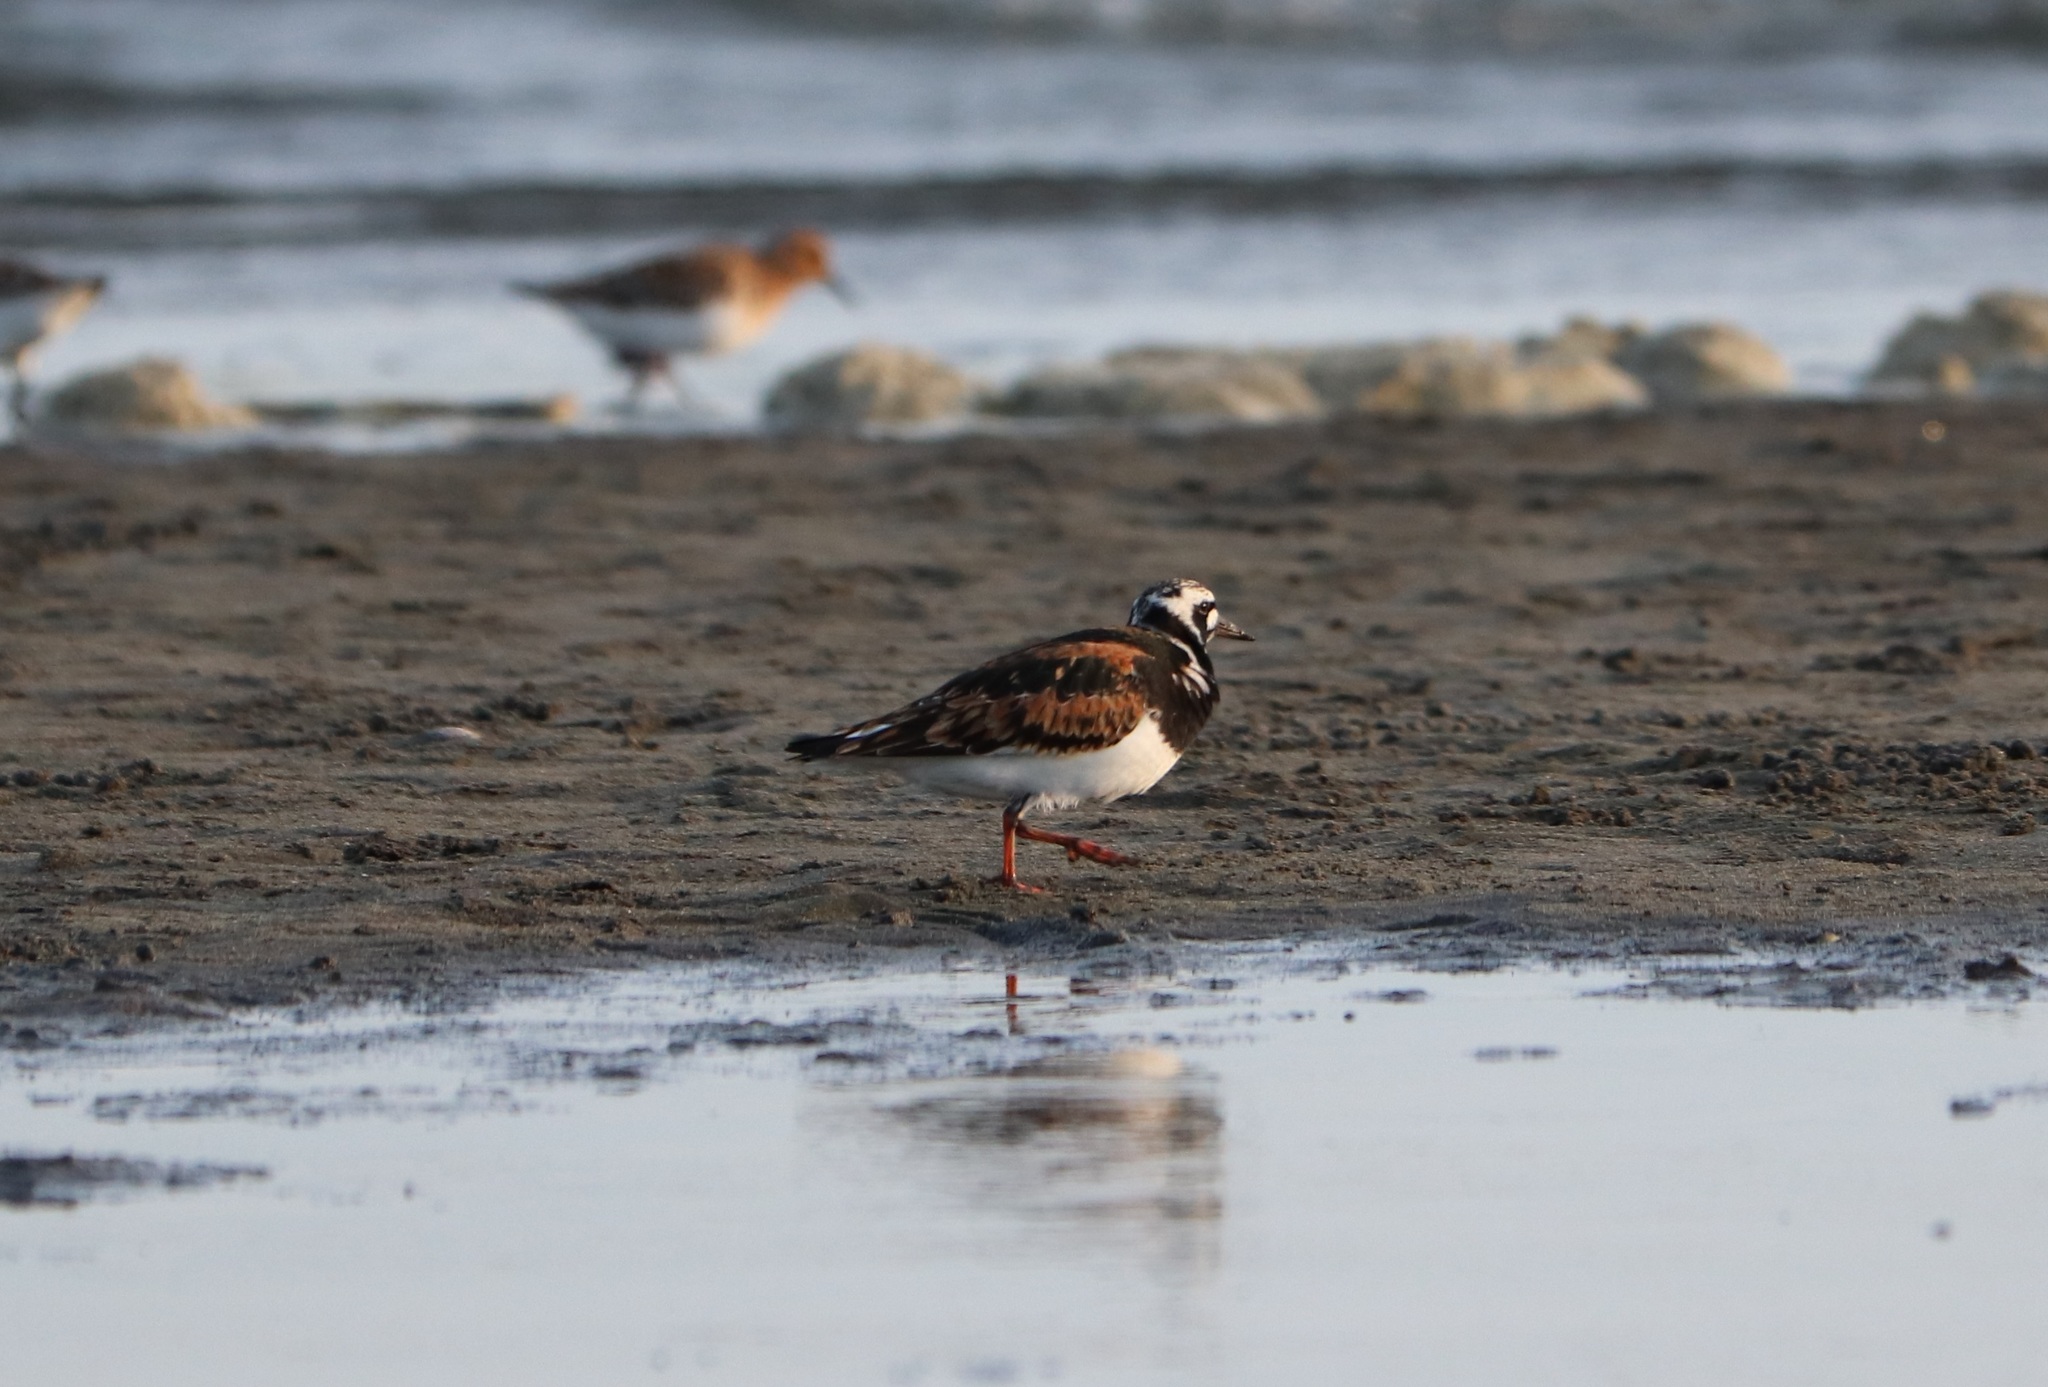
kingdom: Animalia
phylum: Chordata
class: Aves
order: Charadriiformes
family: Scolopacidae
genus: Arenaria
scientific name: Arenaria interpres
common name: Ruddy turnstone
